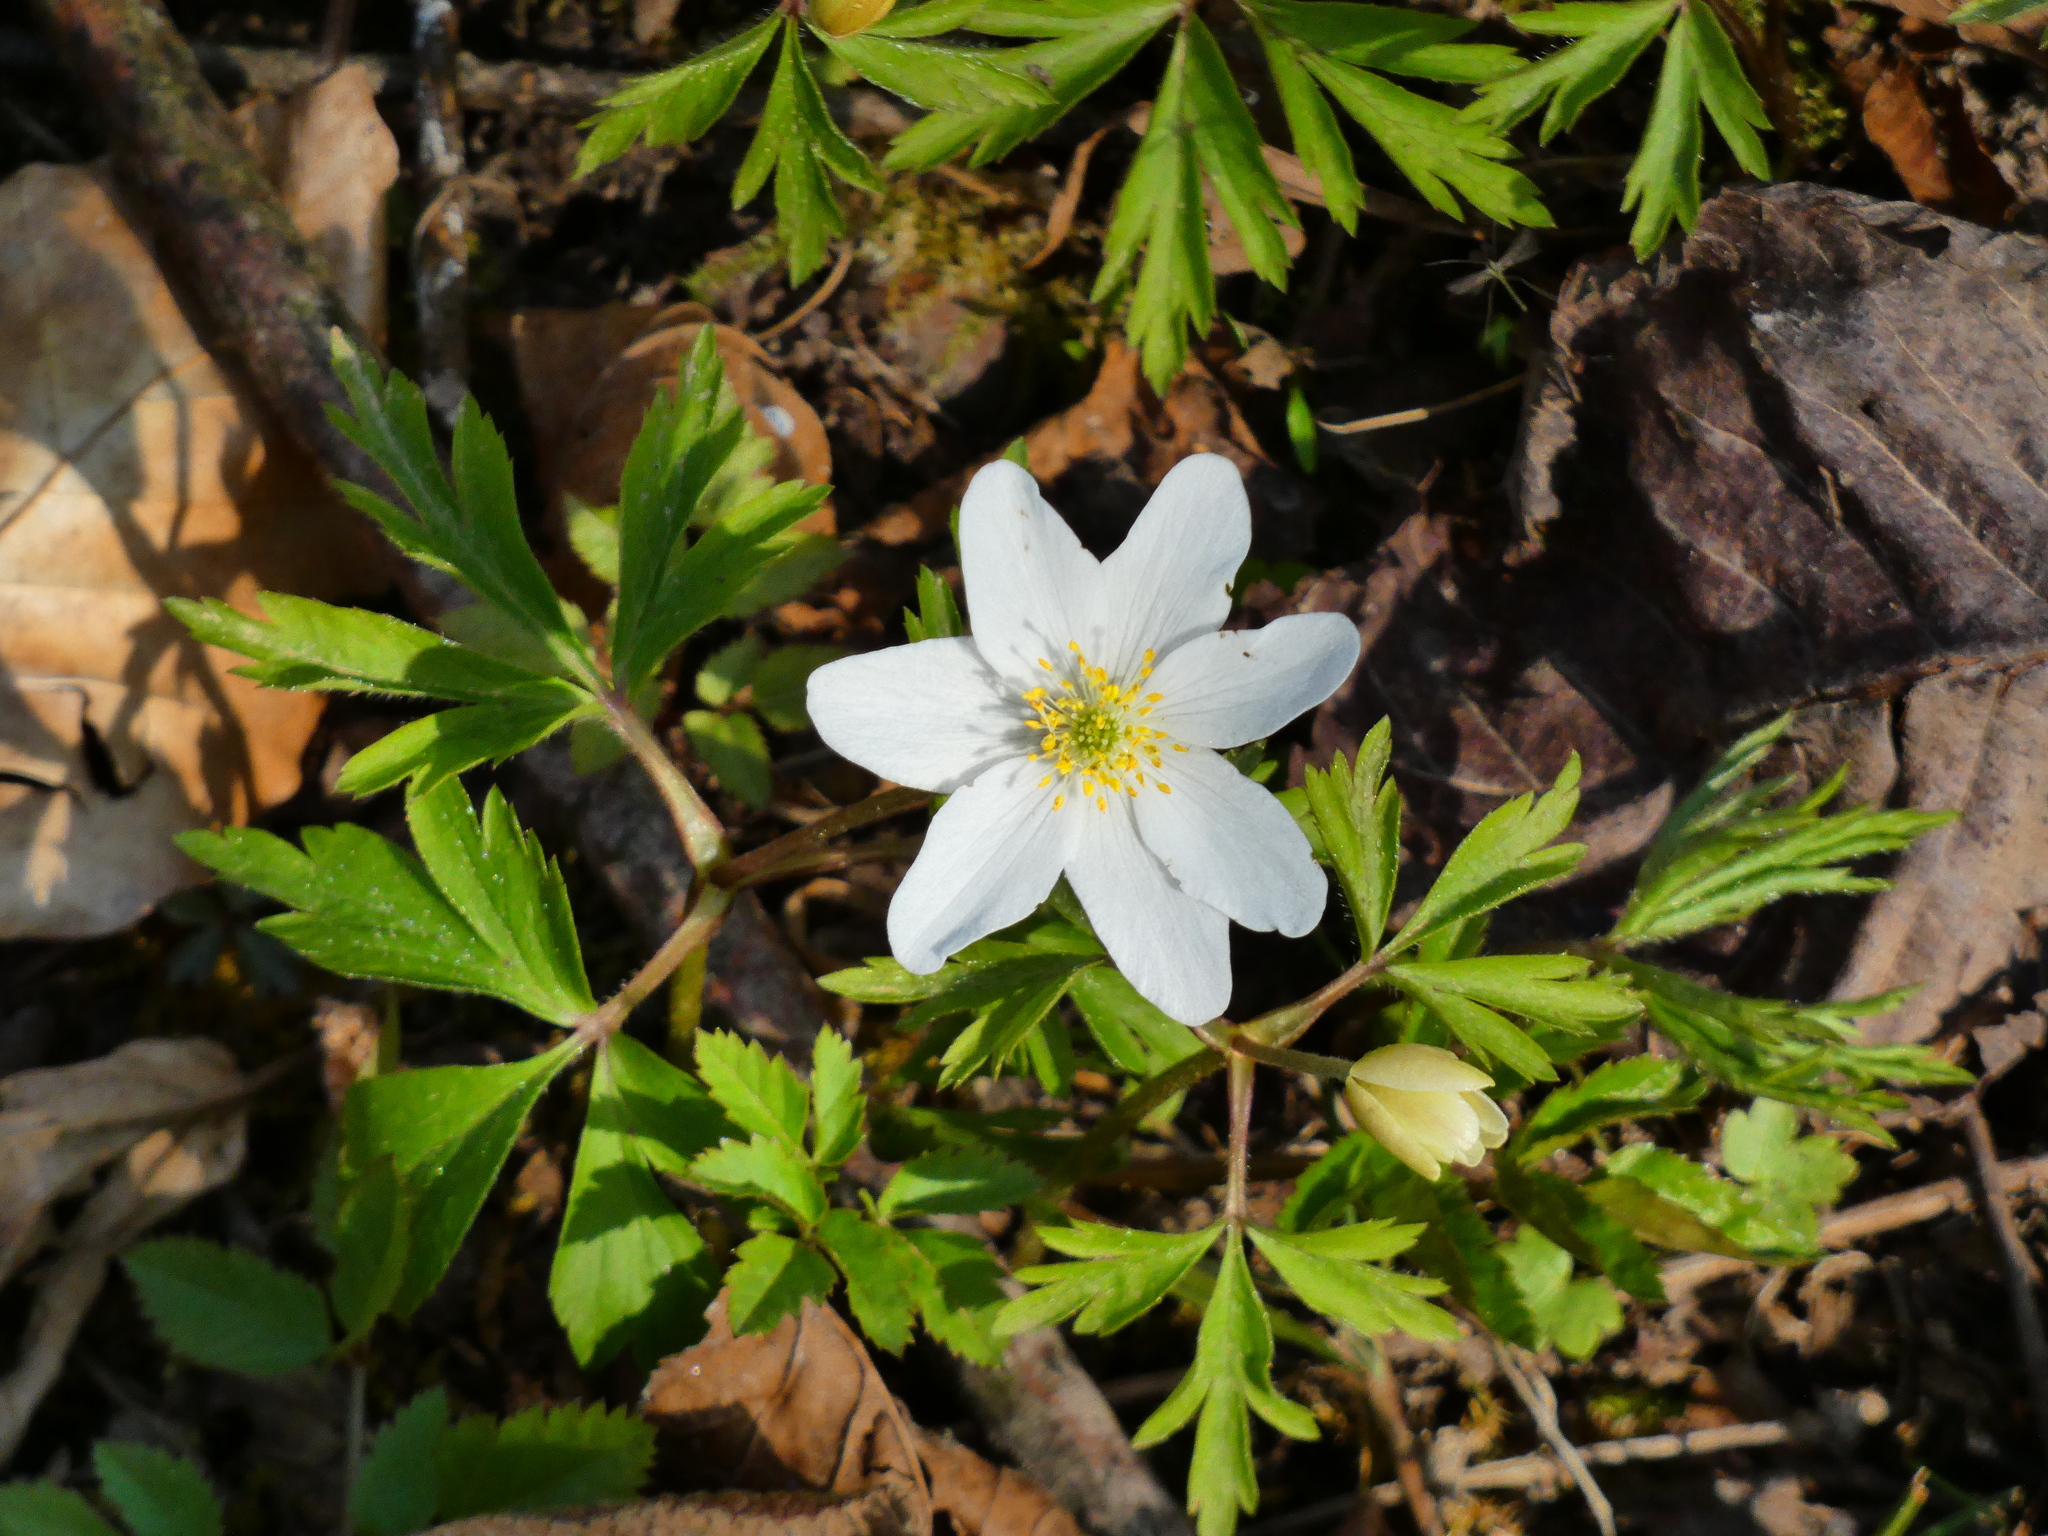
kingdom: Plantae
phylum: Tracheophyta
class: Magnoliopsida
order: Ranunculales
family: Ranunculaceae
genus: Anemone
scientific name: Anemone nemorosa
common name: Wood anemone
